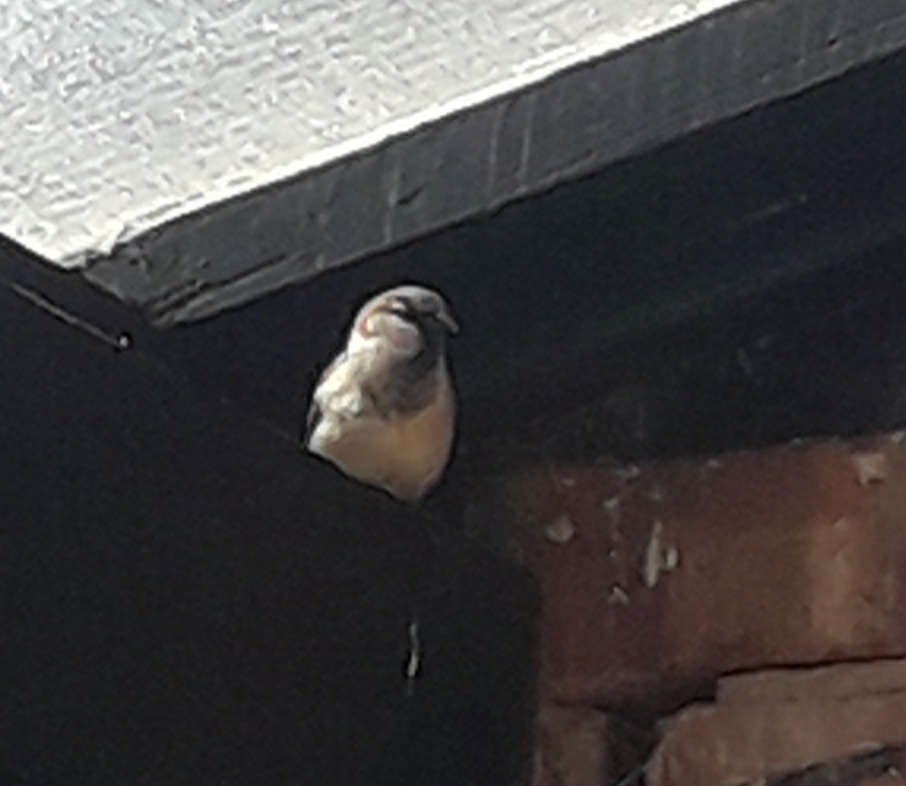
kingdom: Animalia
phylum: Chordata
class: Aves
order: Passeriformes
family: Passeridae
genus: Passer
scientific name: Passer domesticus
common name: House sparrow
